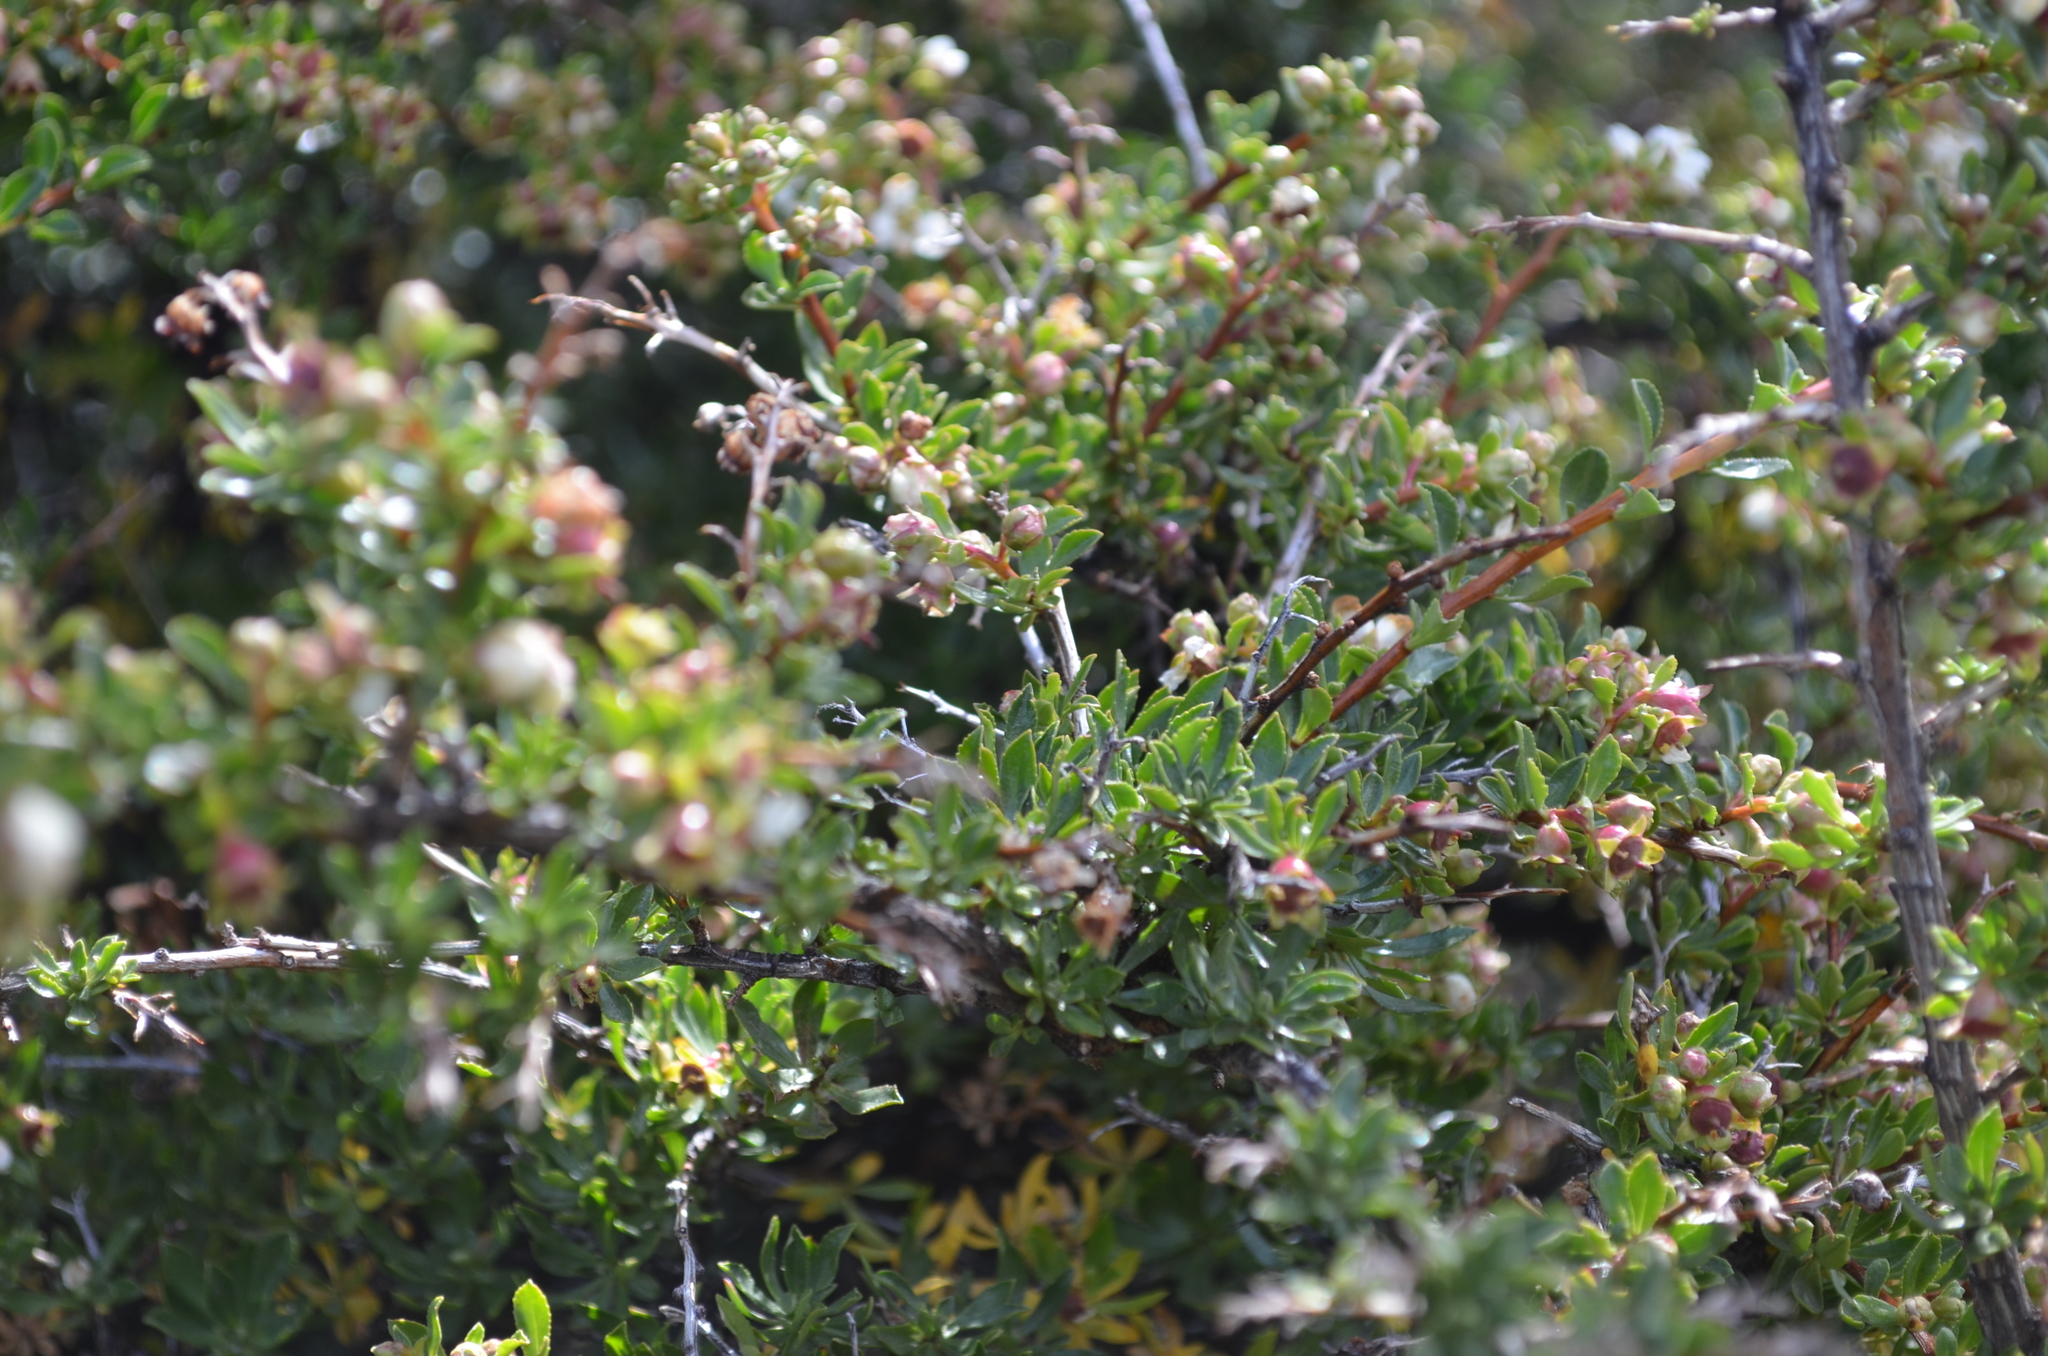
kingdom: Plantae
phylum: Tracheophyta
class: Magnoliopsida
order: Escalloniales
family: Escalloniaceae
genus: Escallonia
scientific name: Escallonia virgata
